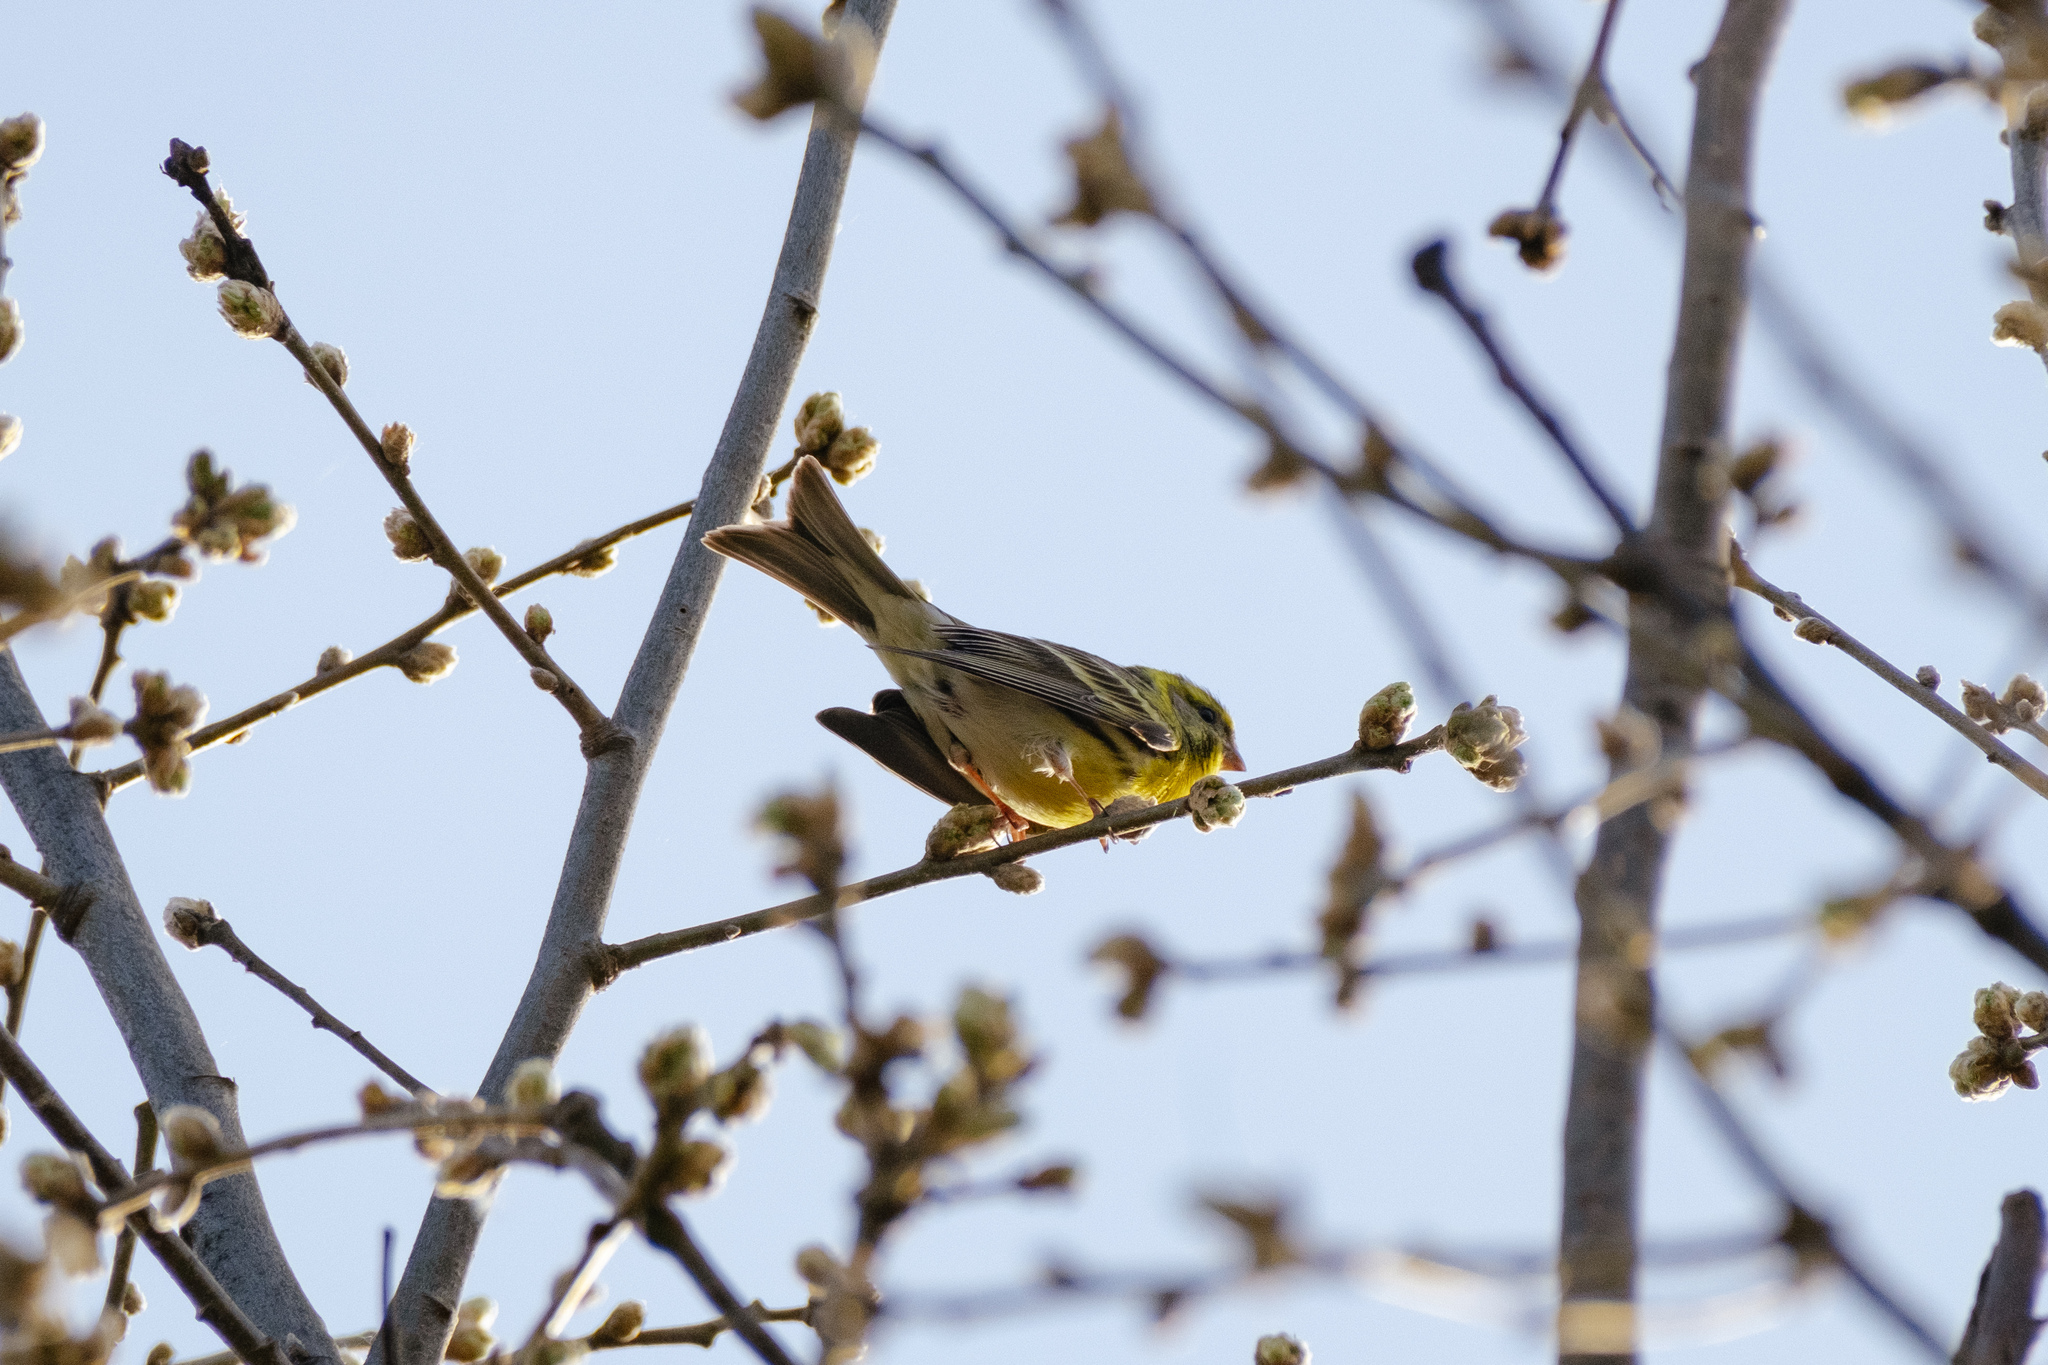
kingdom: Animalia
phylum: Chordata
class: Aves
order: Passeriformes
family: Fringillidae
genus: Serinus
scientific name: Serinus serinus
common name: European serin
